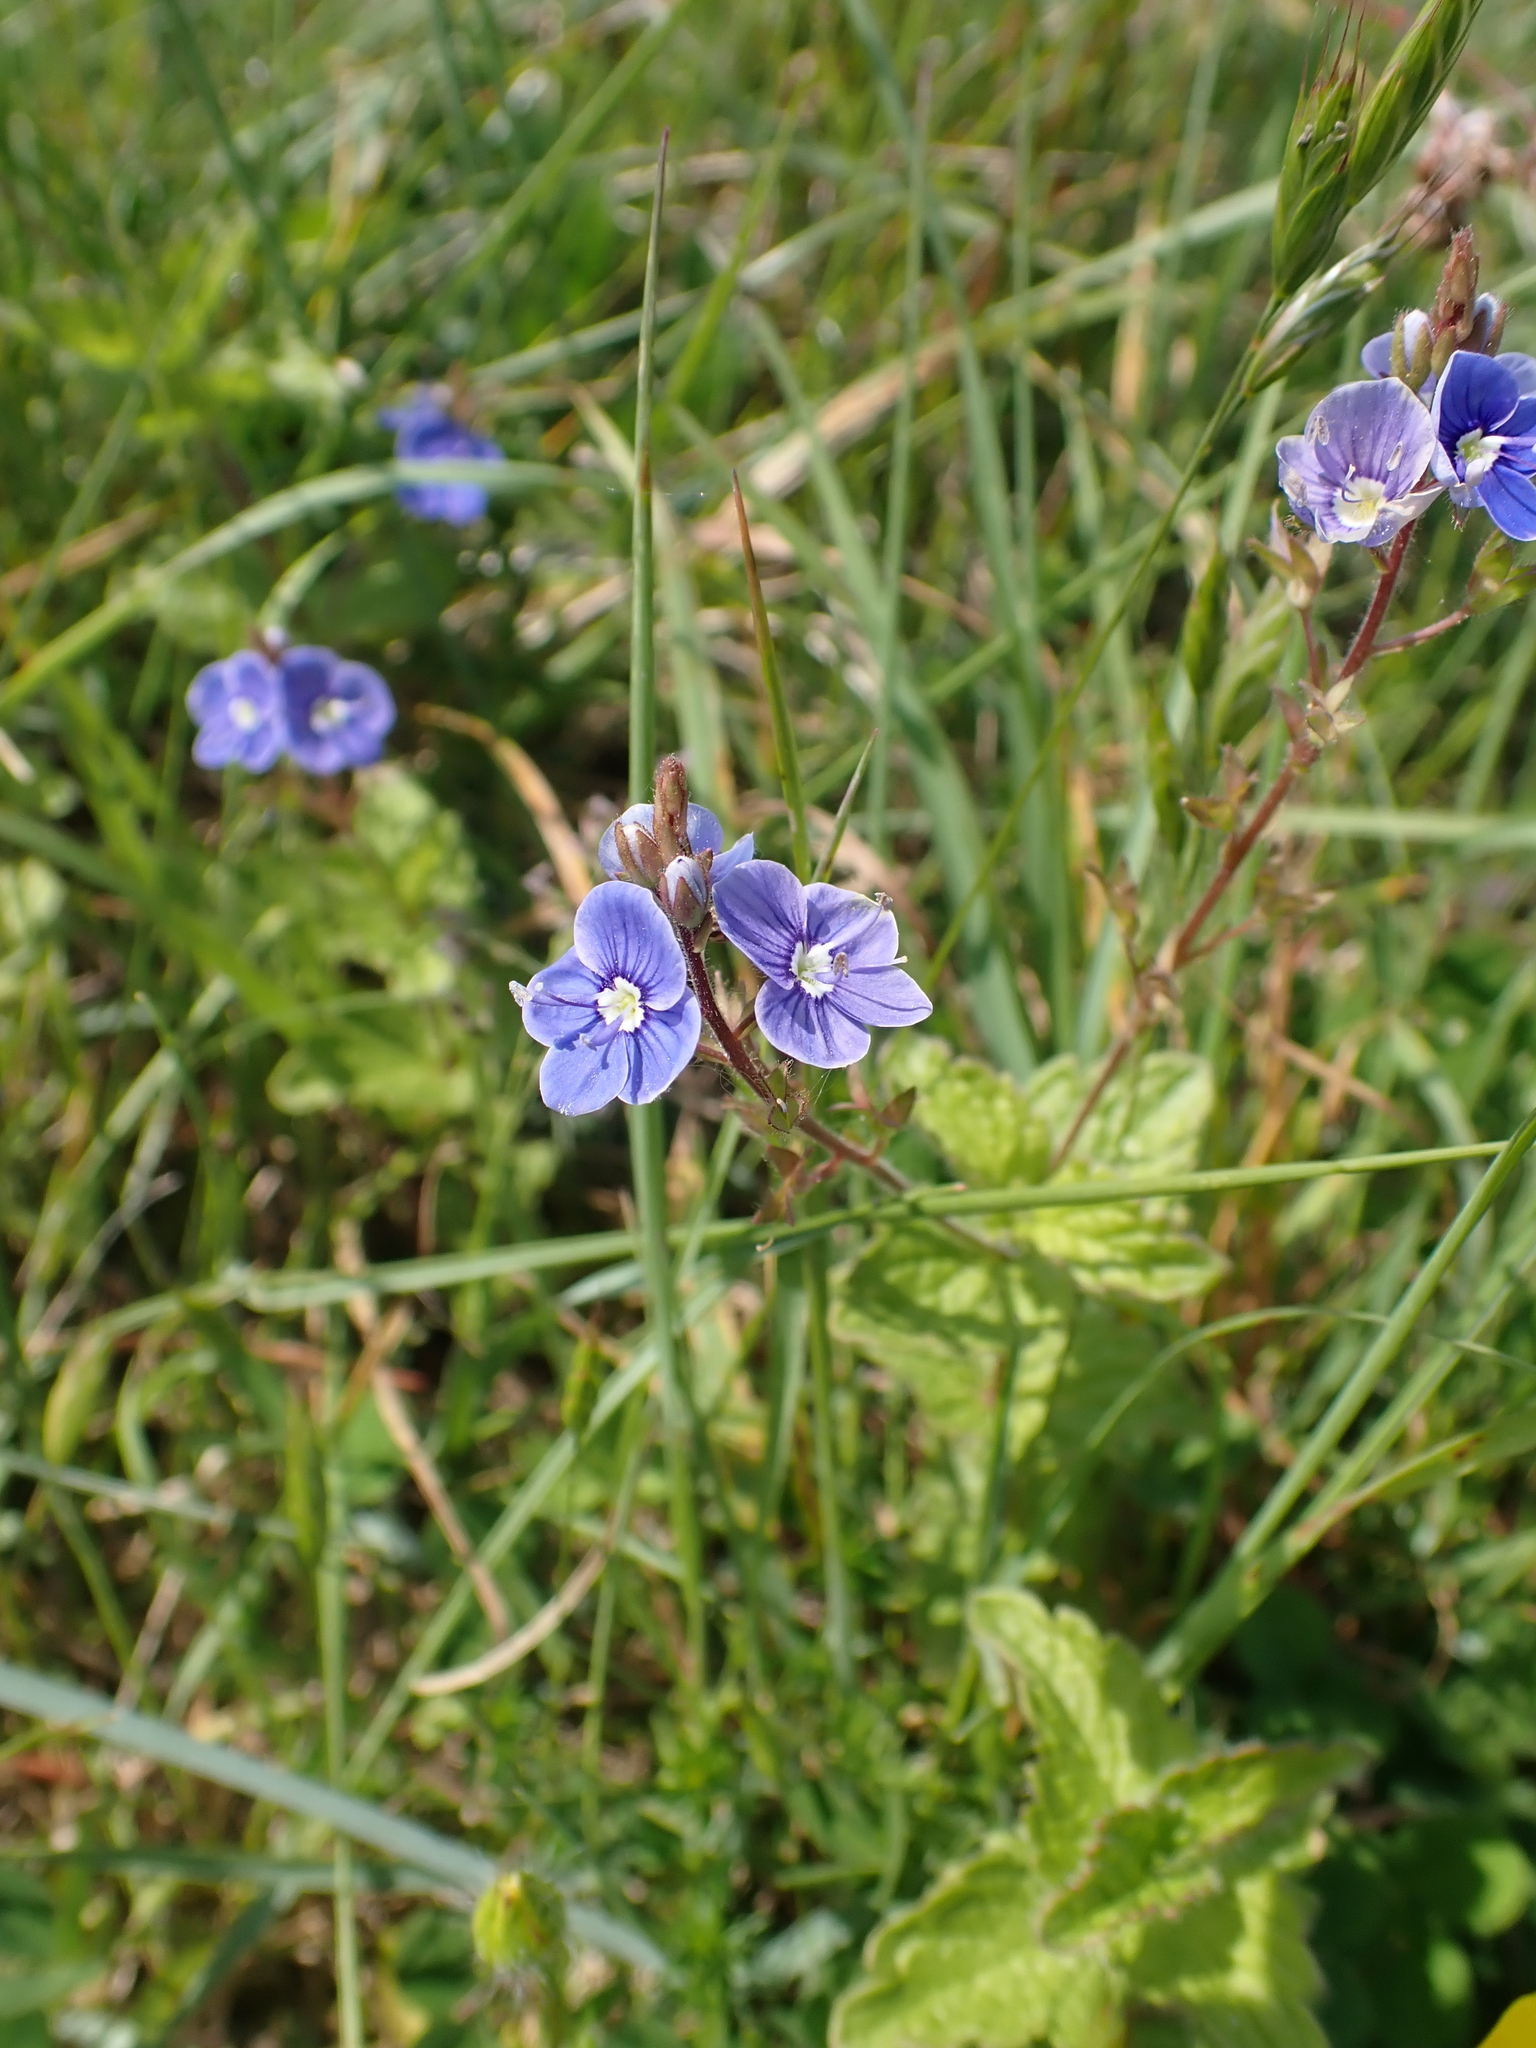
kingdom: Plantae
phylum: Tracheophyta
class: Magnoliopsida
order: Lamiales
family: Plantaginaceae
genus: Veronica
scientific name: Veronica chamaedrys
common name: Germander speedwell
